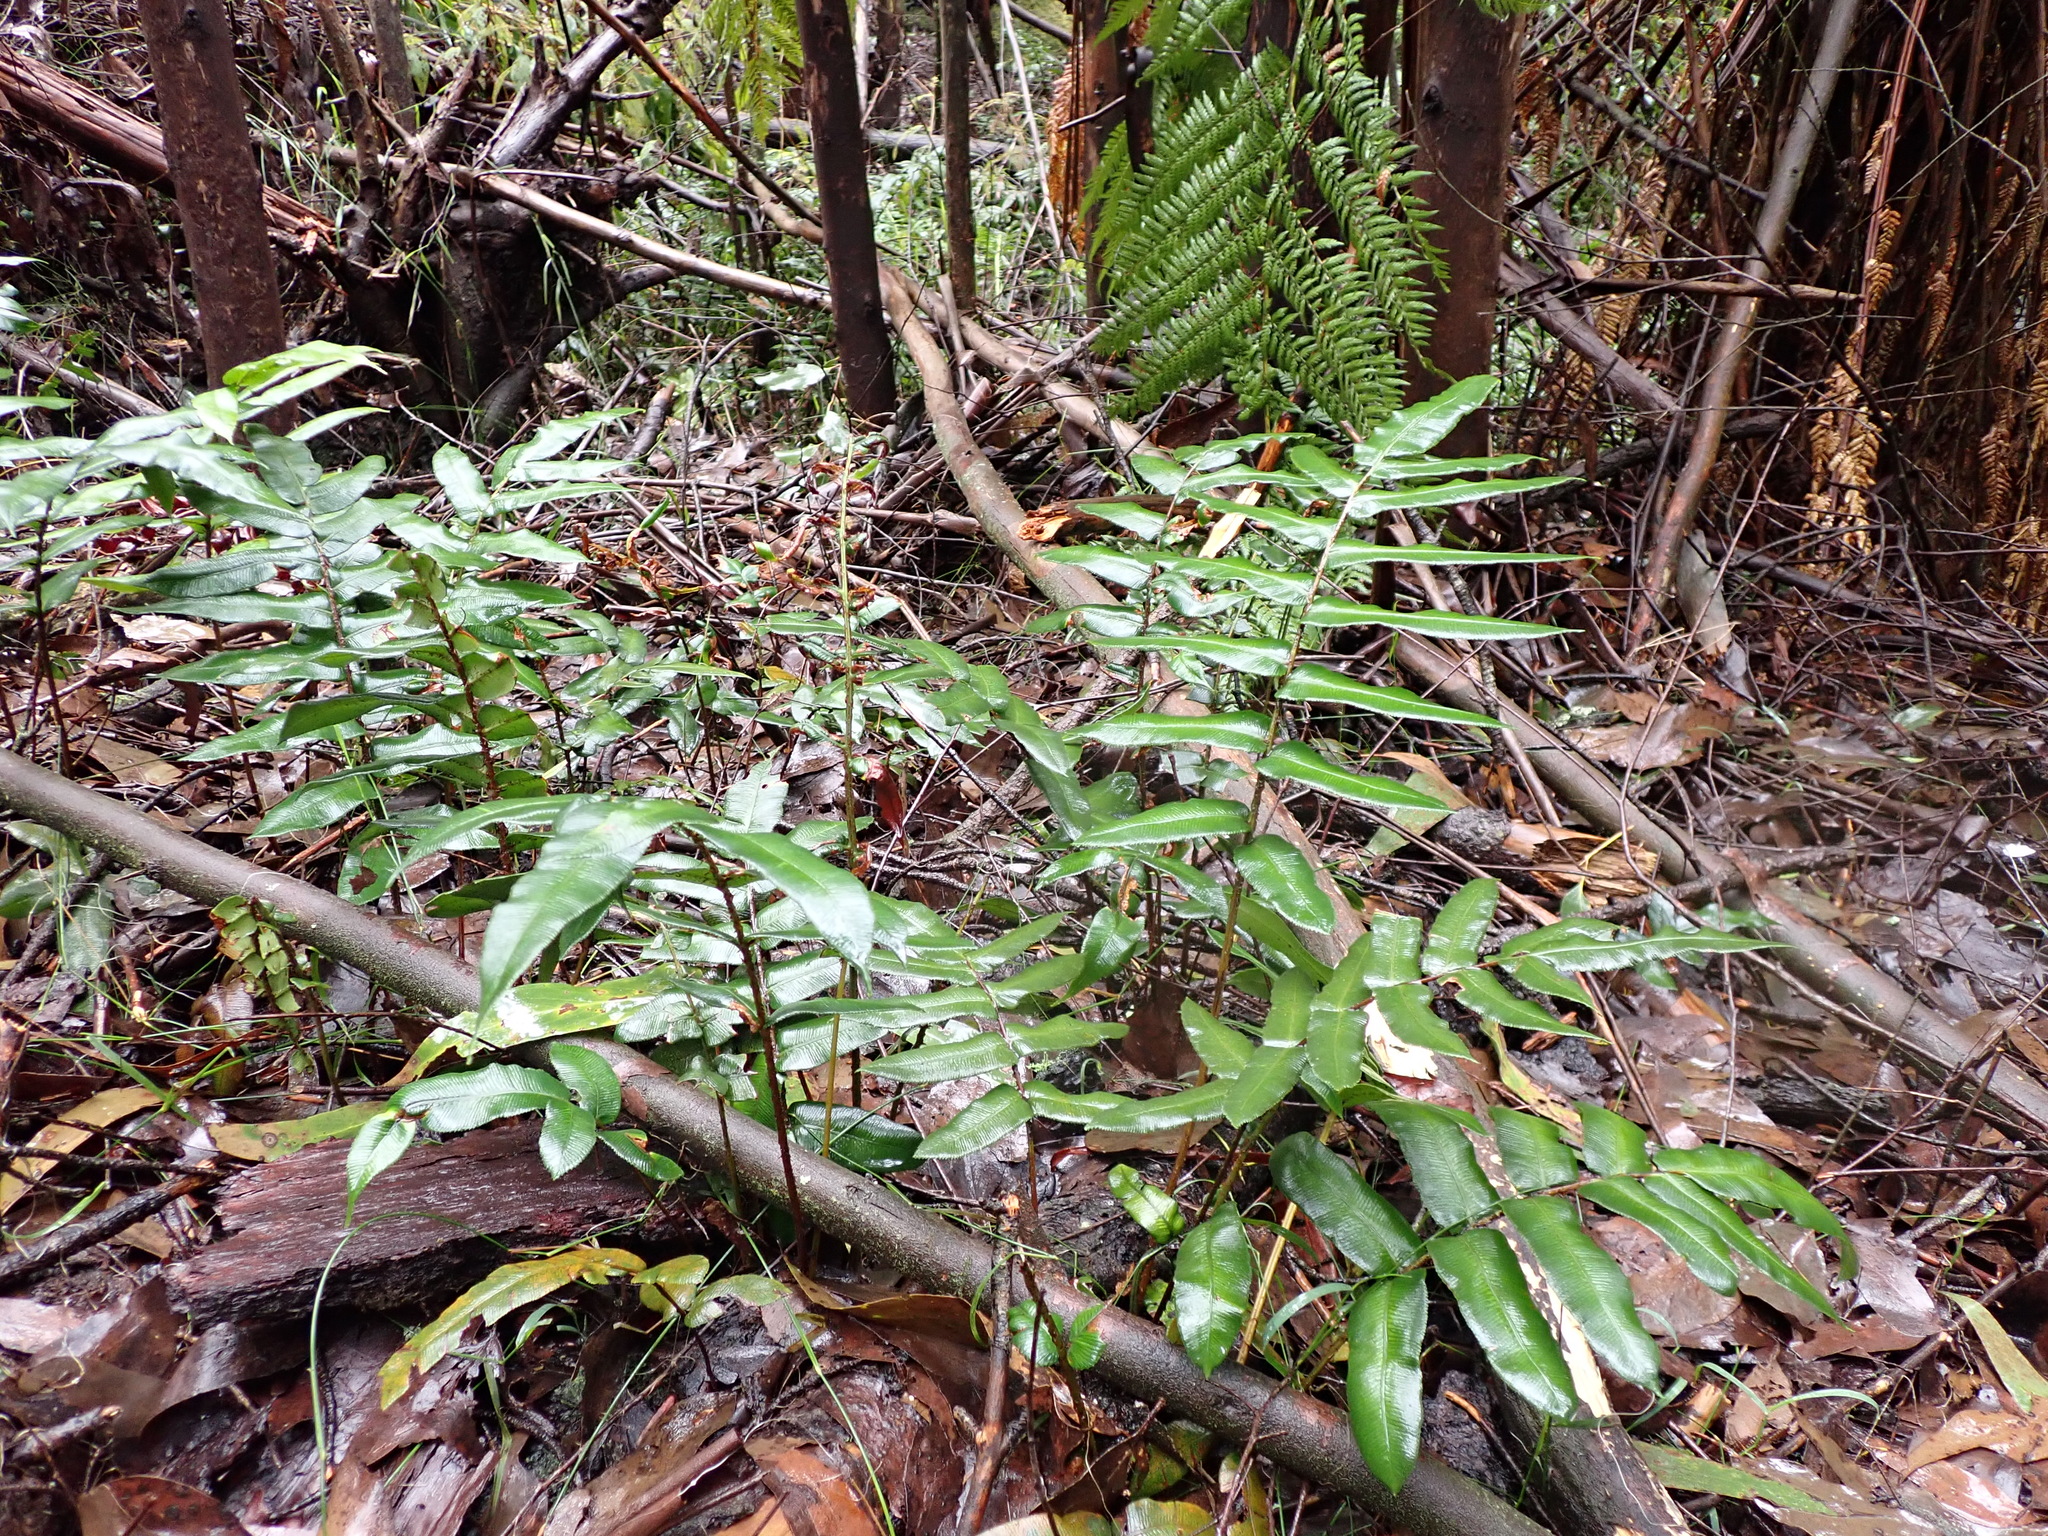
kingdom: Plantae
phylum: Tracheophyta
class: Polypodiopsida
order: Polypodiales
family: Blechnaceae
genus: Parablechnum
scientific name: Parablechnum wattsii
